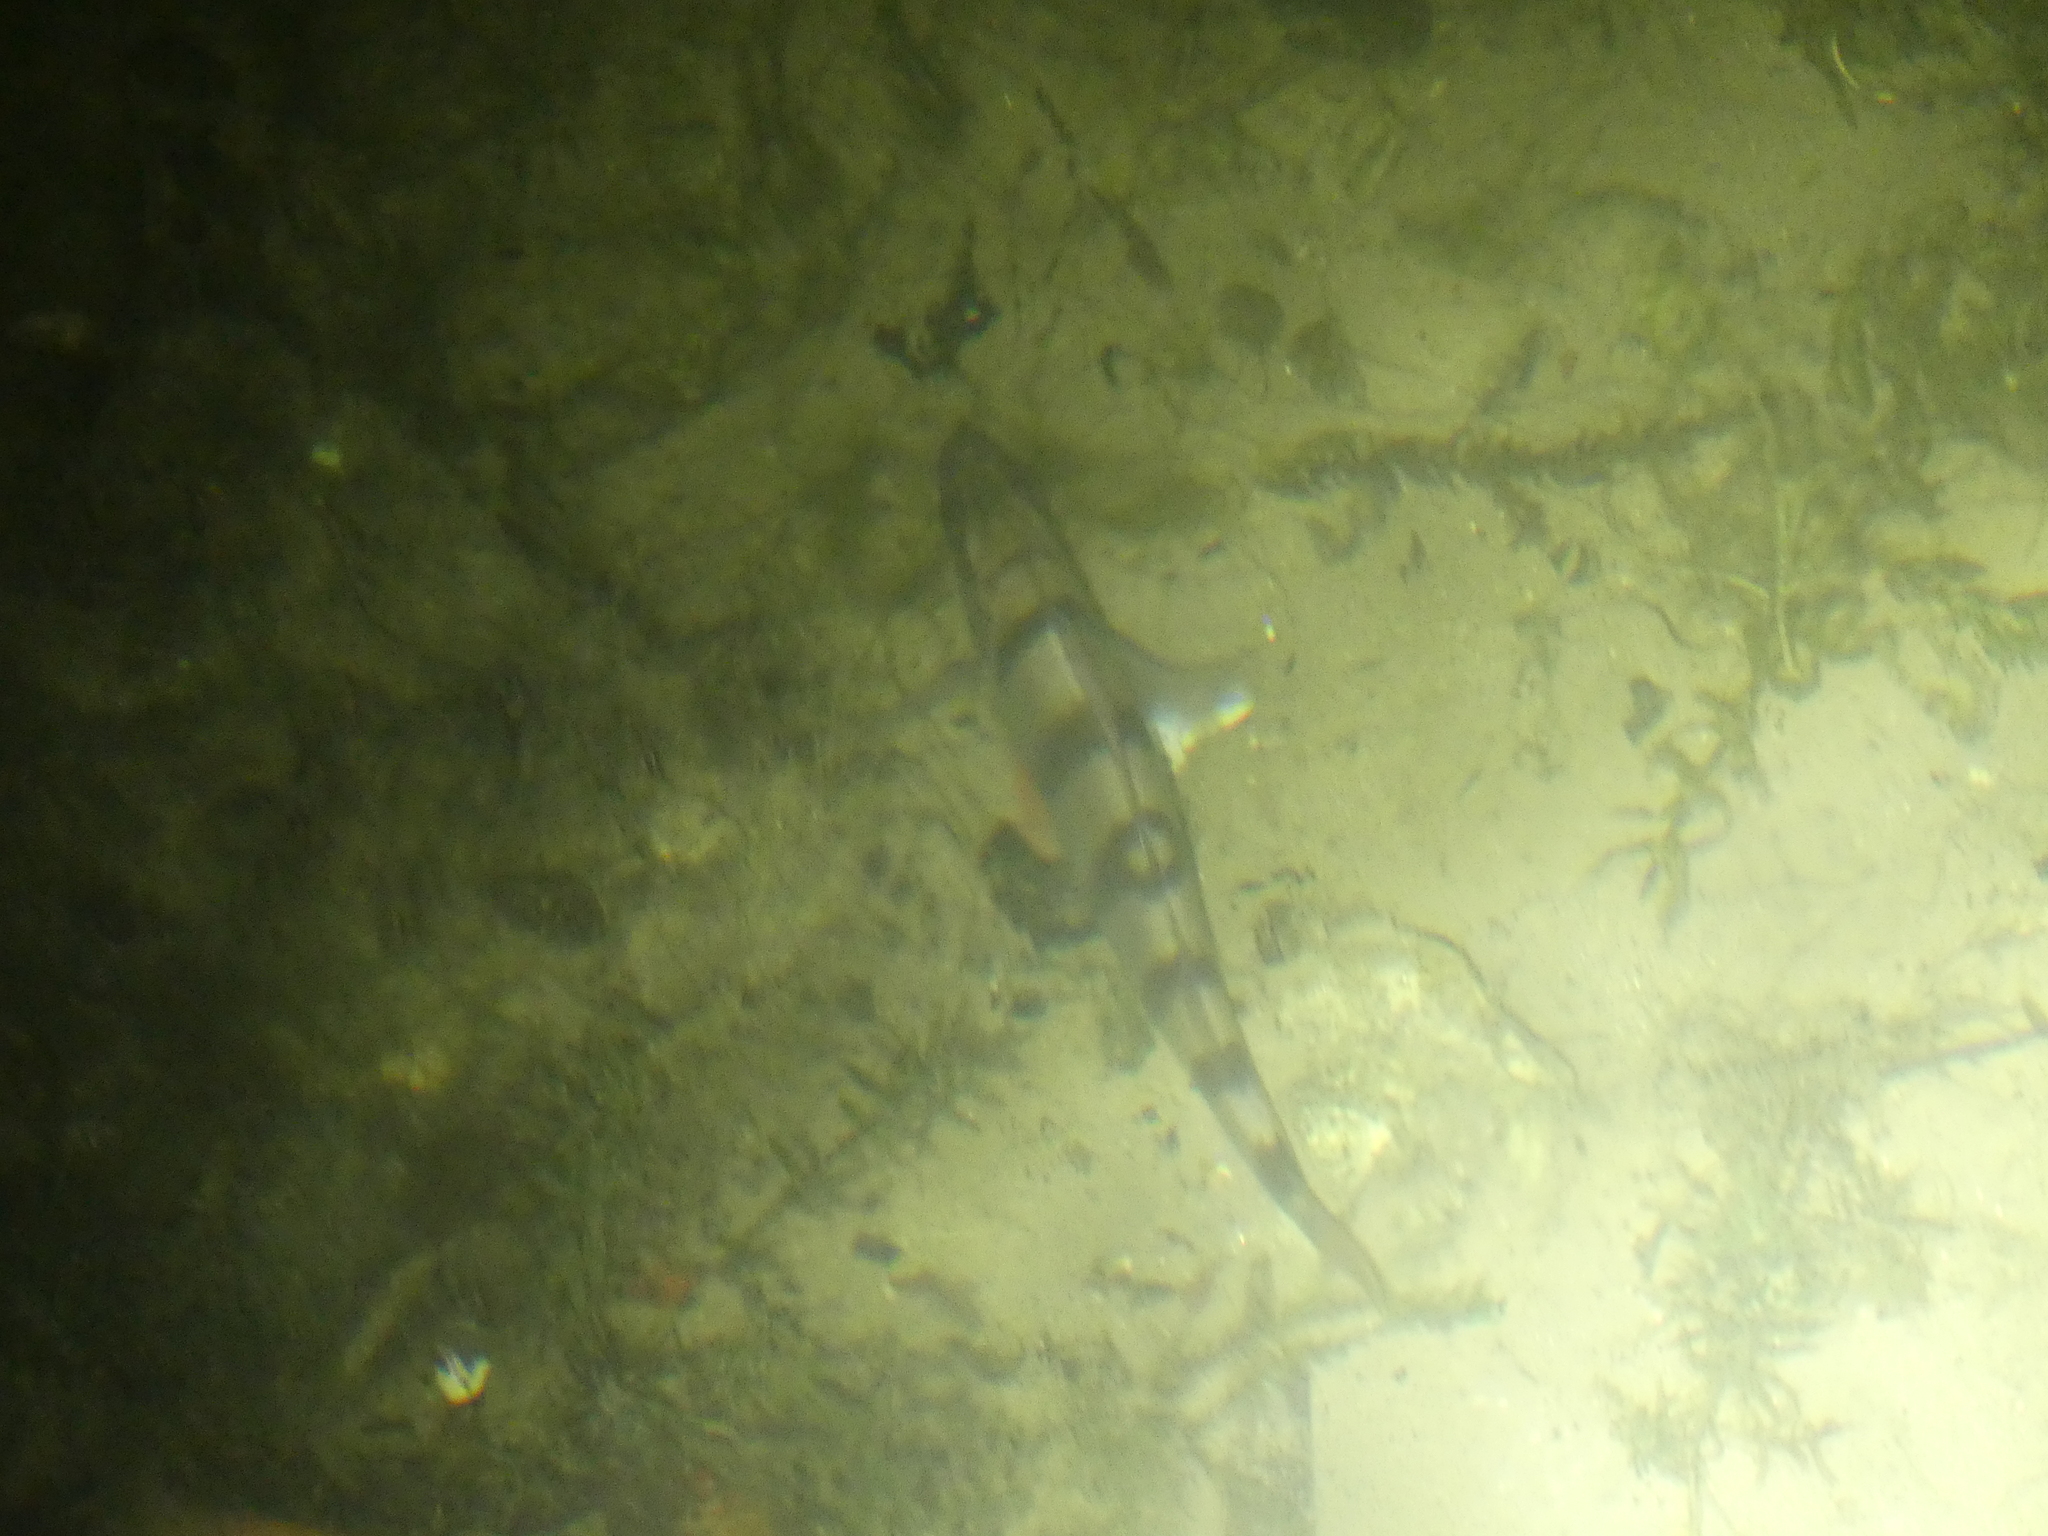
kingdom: Animalia
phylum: Chordata
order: Perciformes
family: Percidae
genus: Perca
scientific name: Perca fluviatilis
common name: Perch
